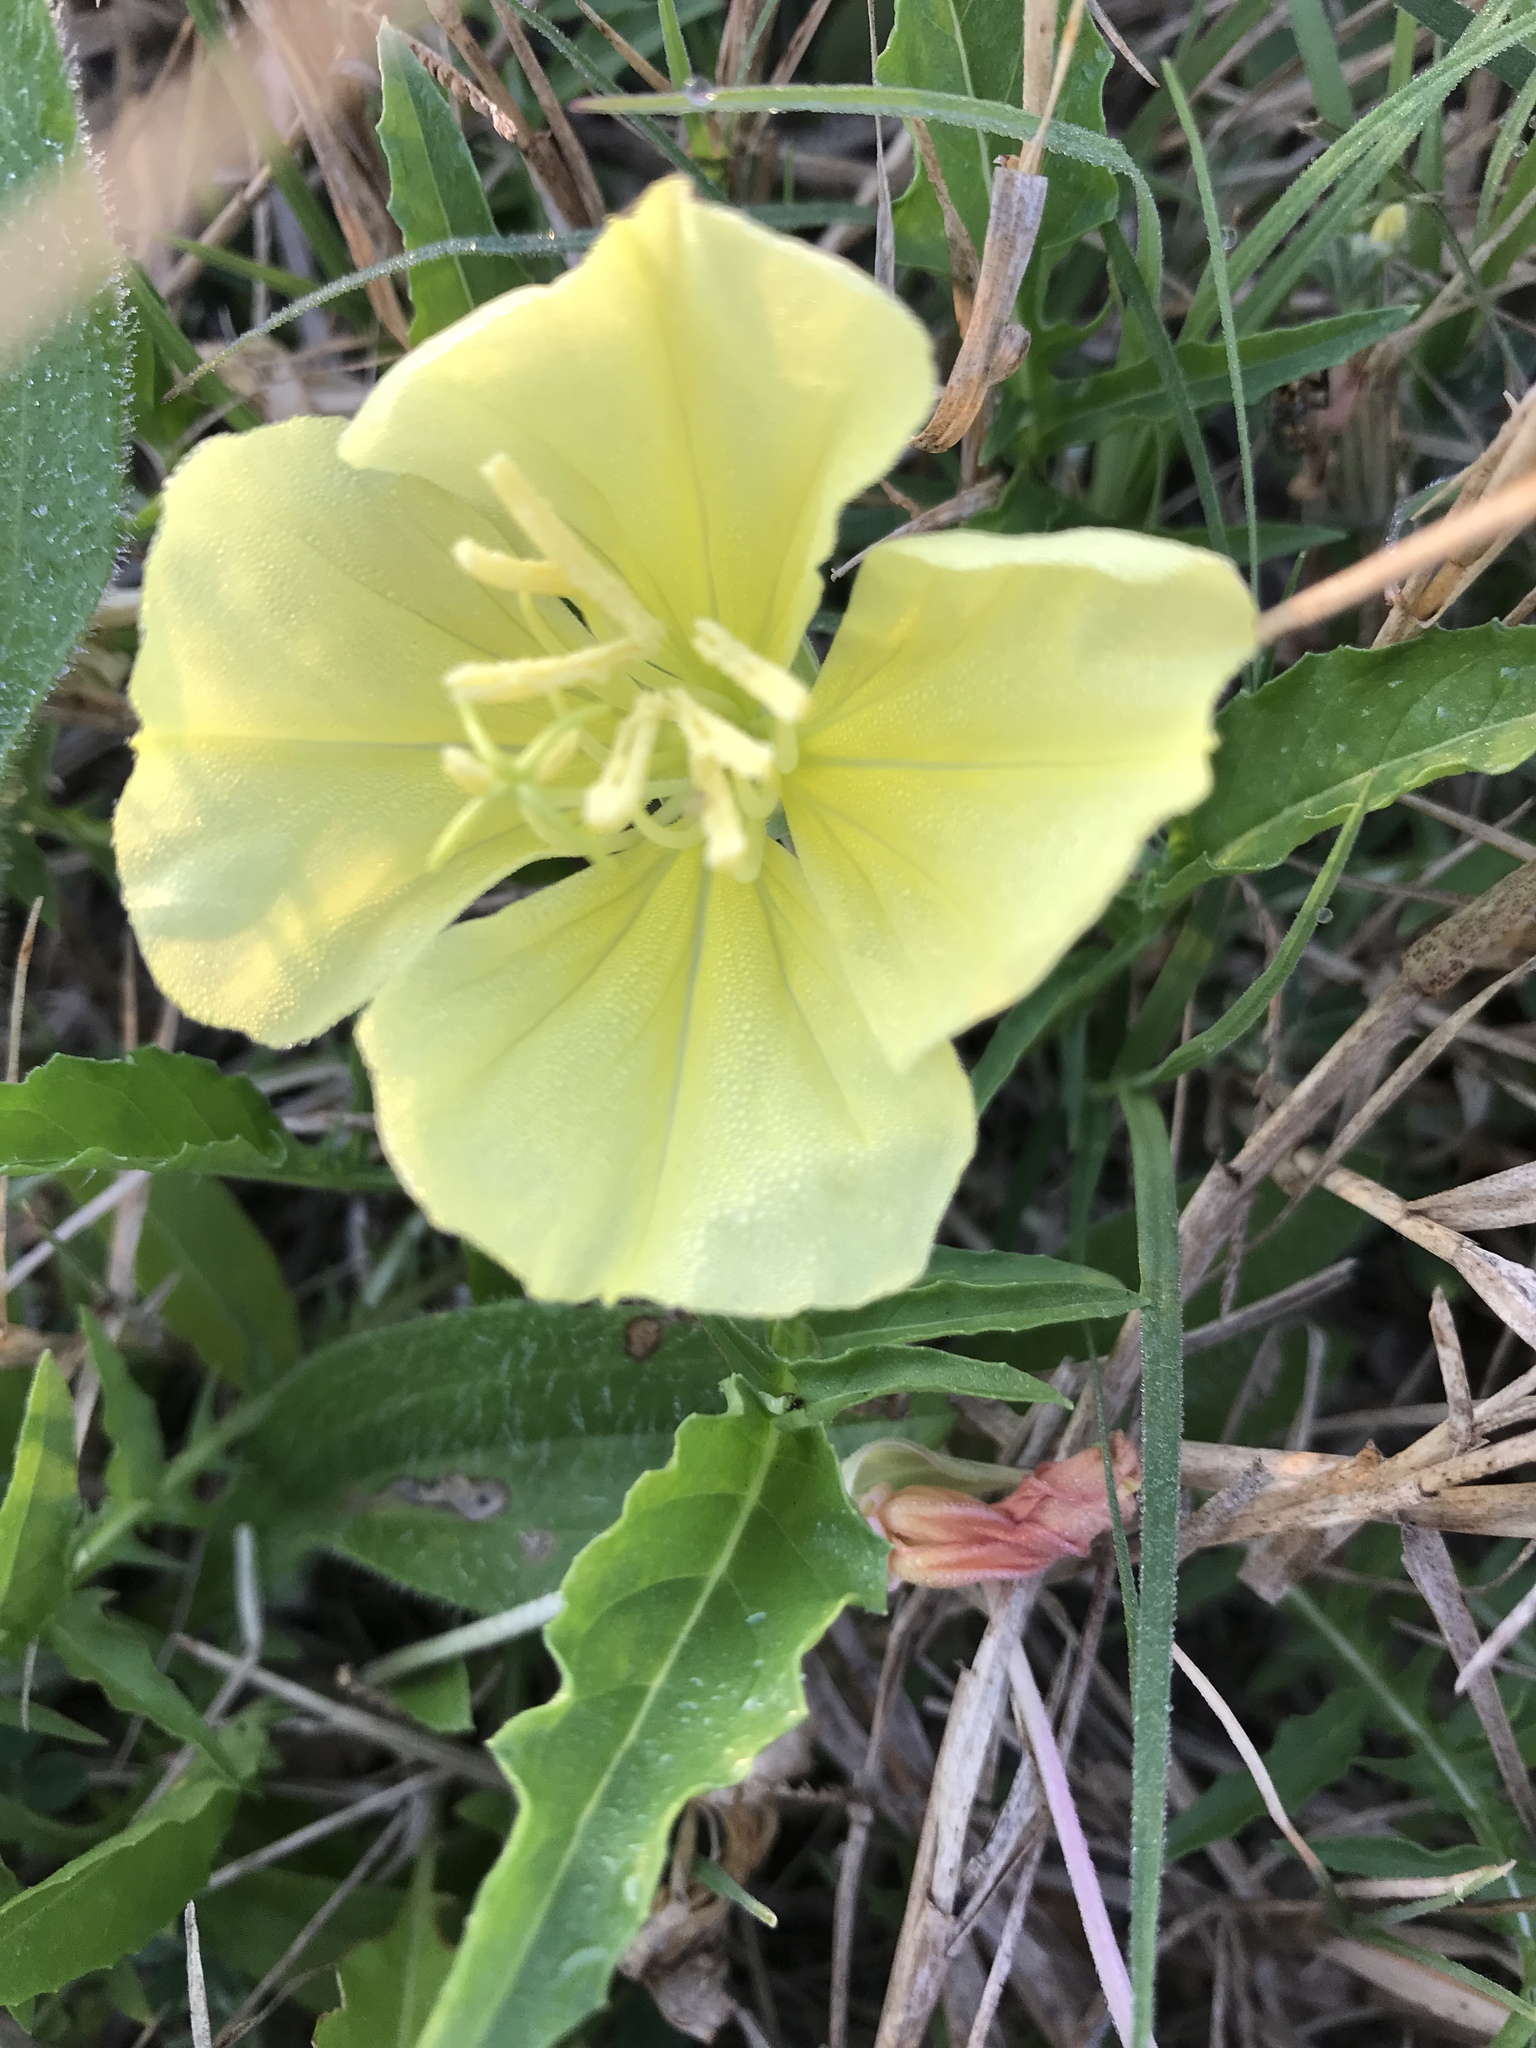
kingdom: Plantae
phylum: Tracheophyta
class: Magnoliopsida
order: Myrtales
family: Onagraceae
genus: Oenothera
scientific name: Oenothera triloba
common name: Sessile evening-primrose
